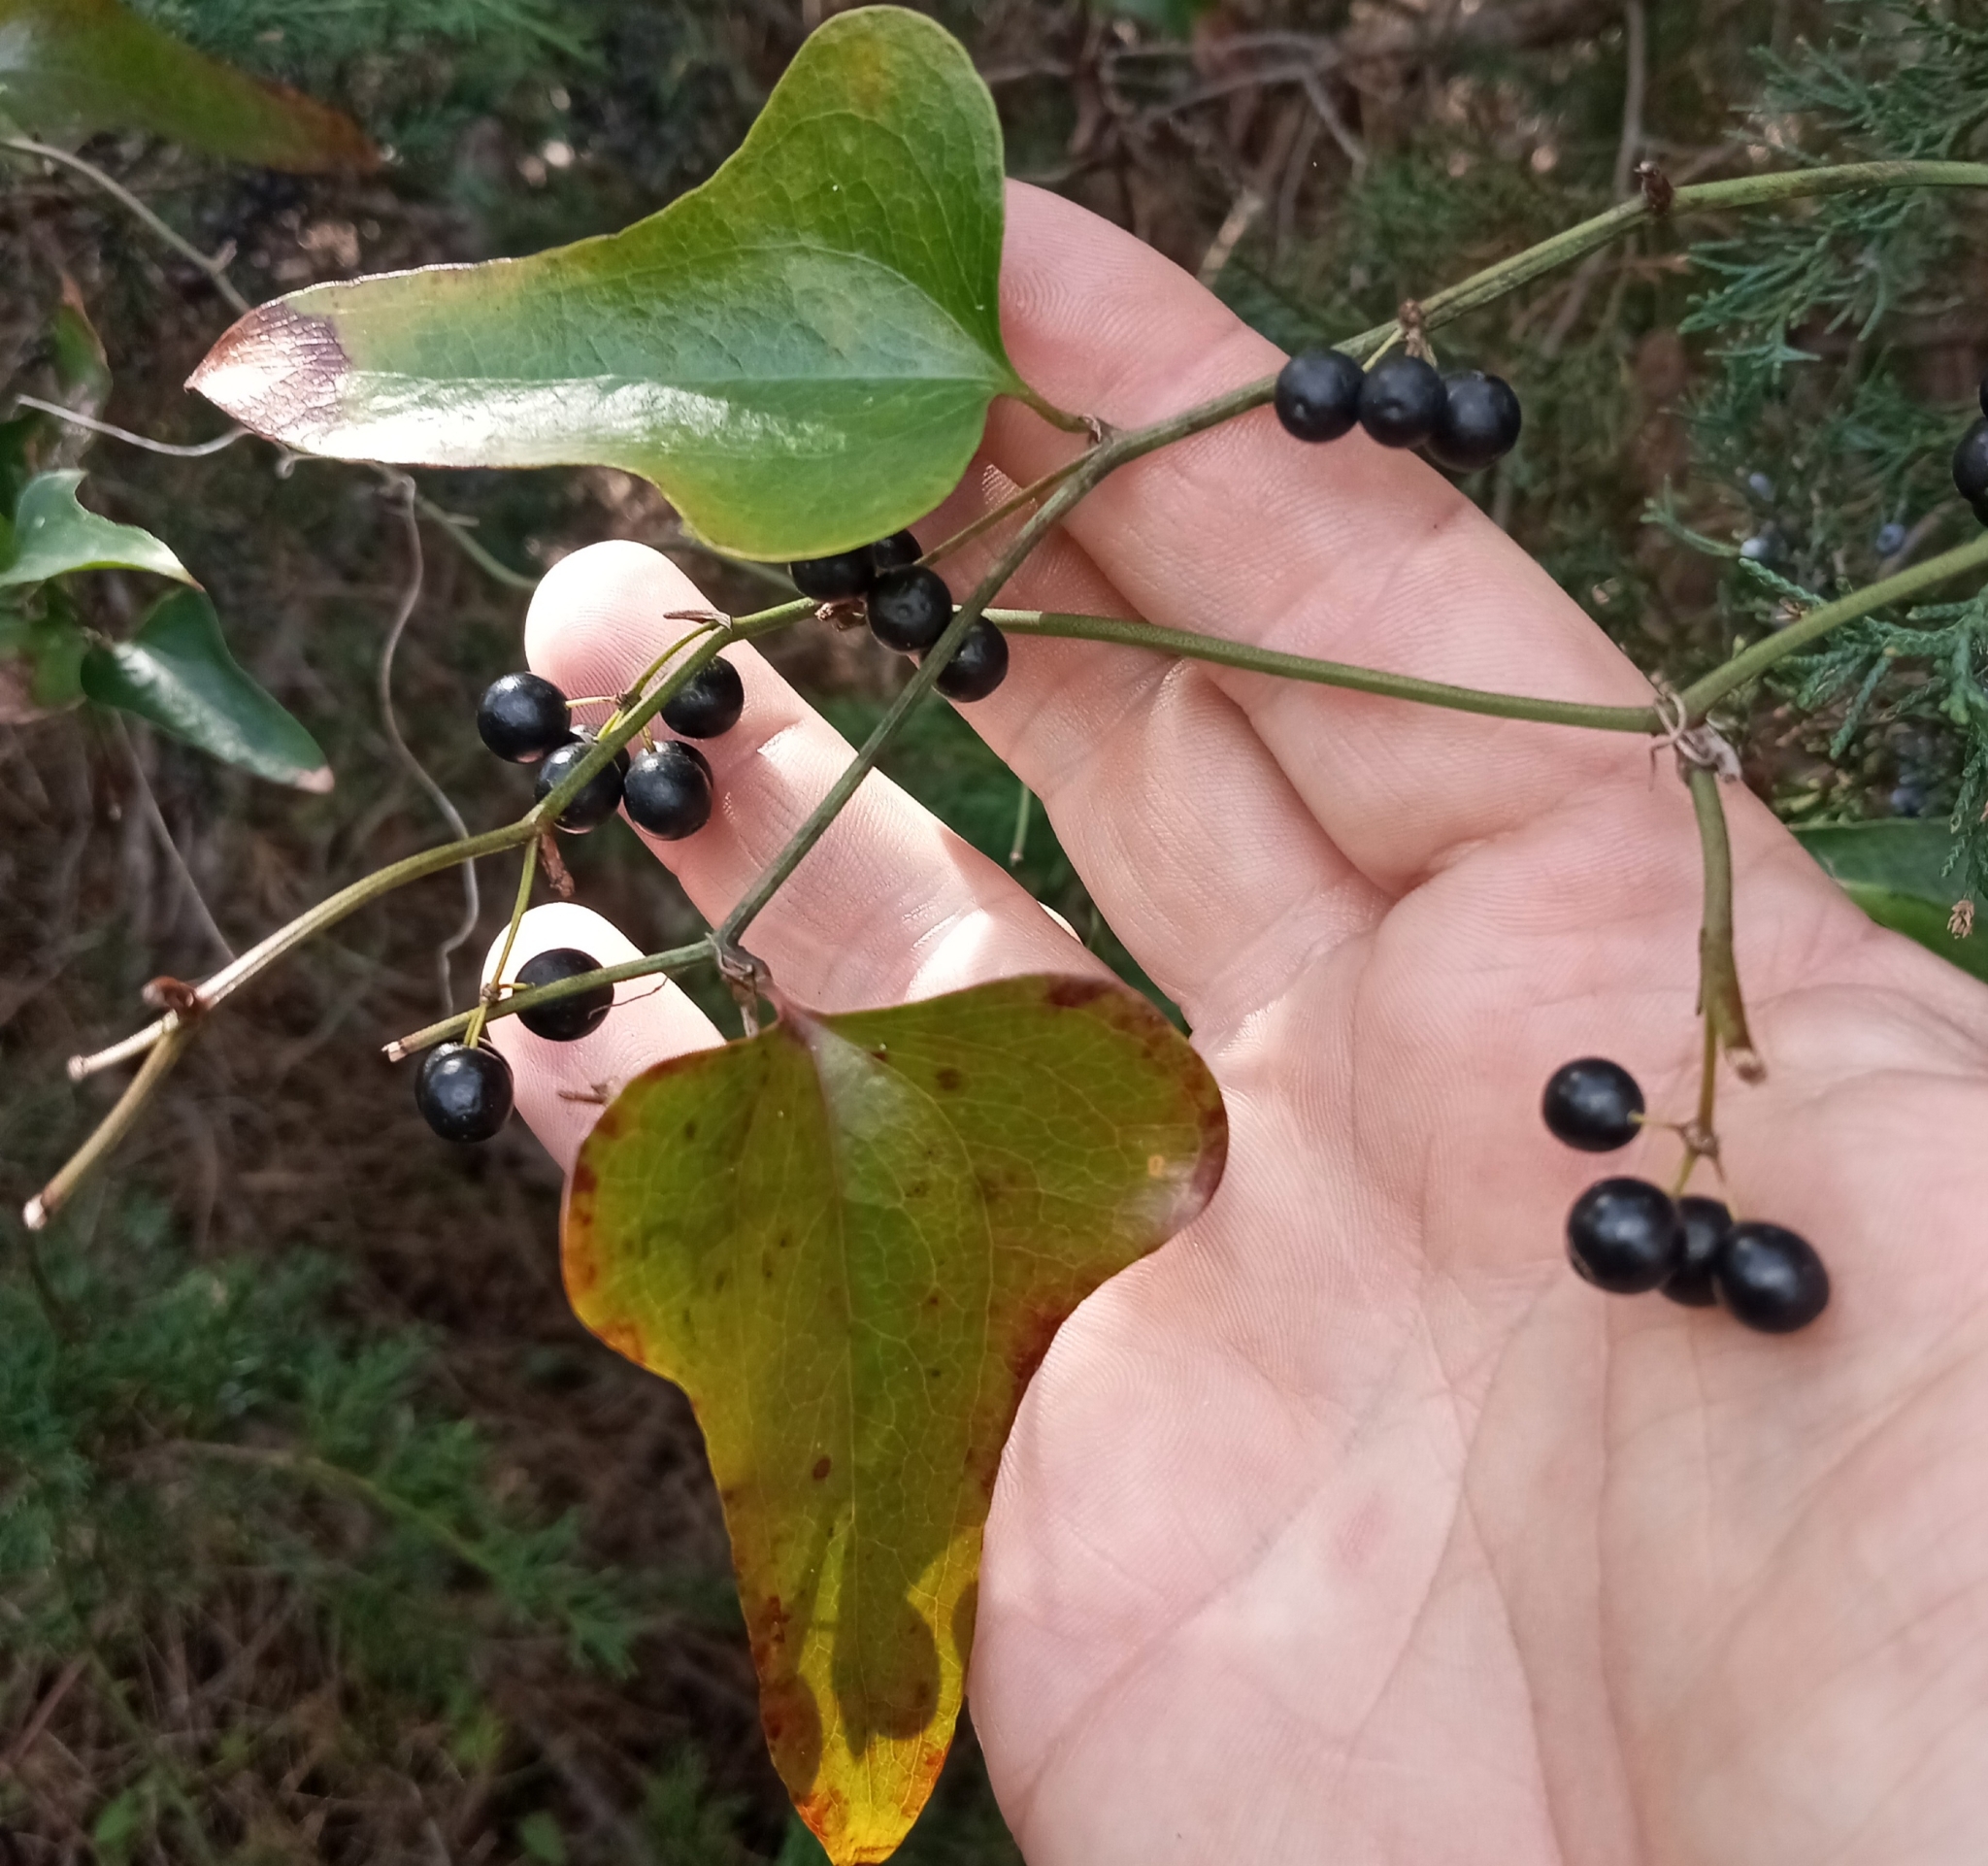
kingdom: Plantae
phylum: Tracheophyta
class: Liliopsida
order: Liliales
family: Smilacaceae
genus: Smilax
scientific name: Smilax bona-nox
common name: Catbrier
